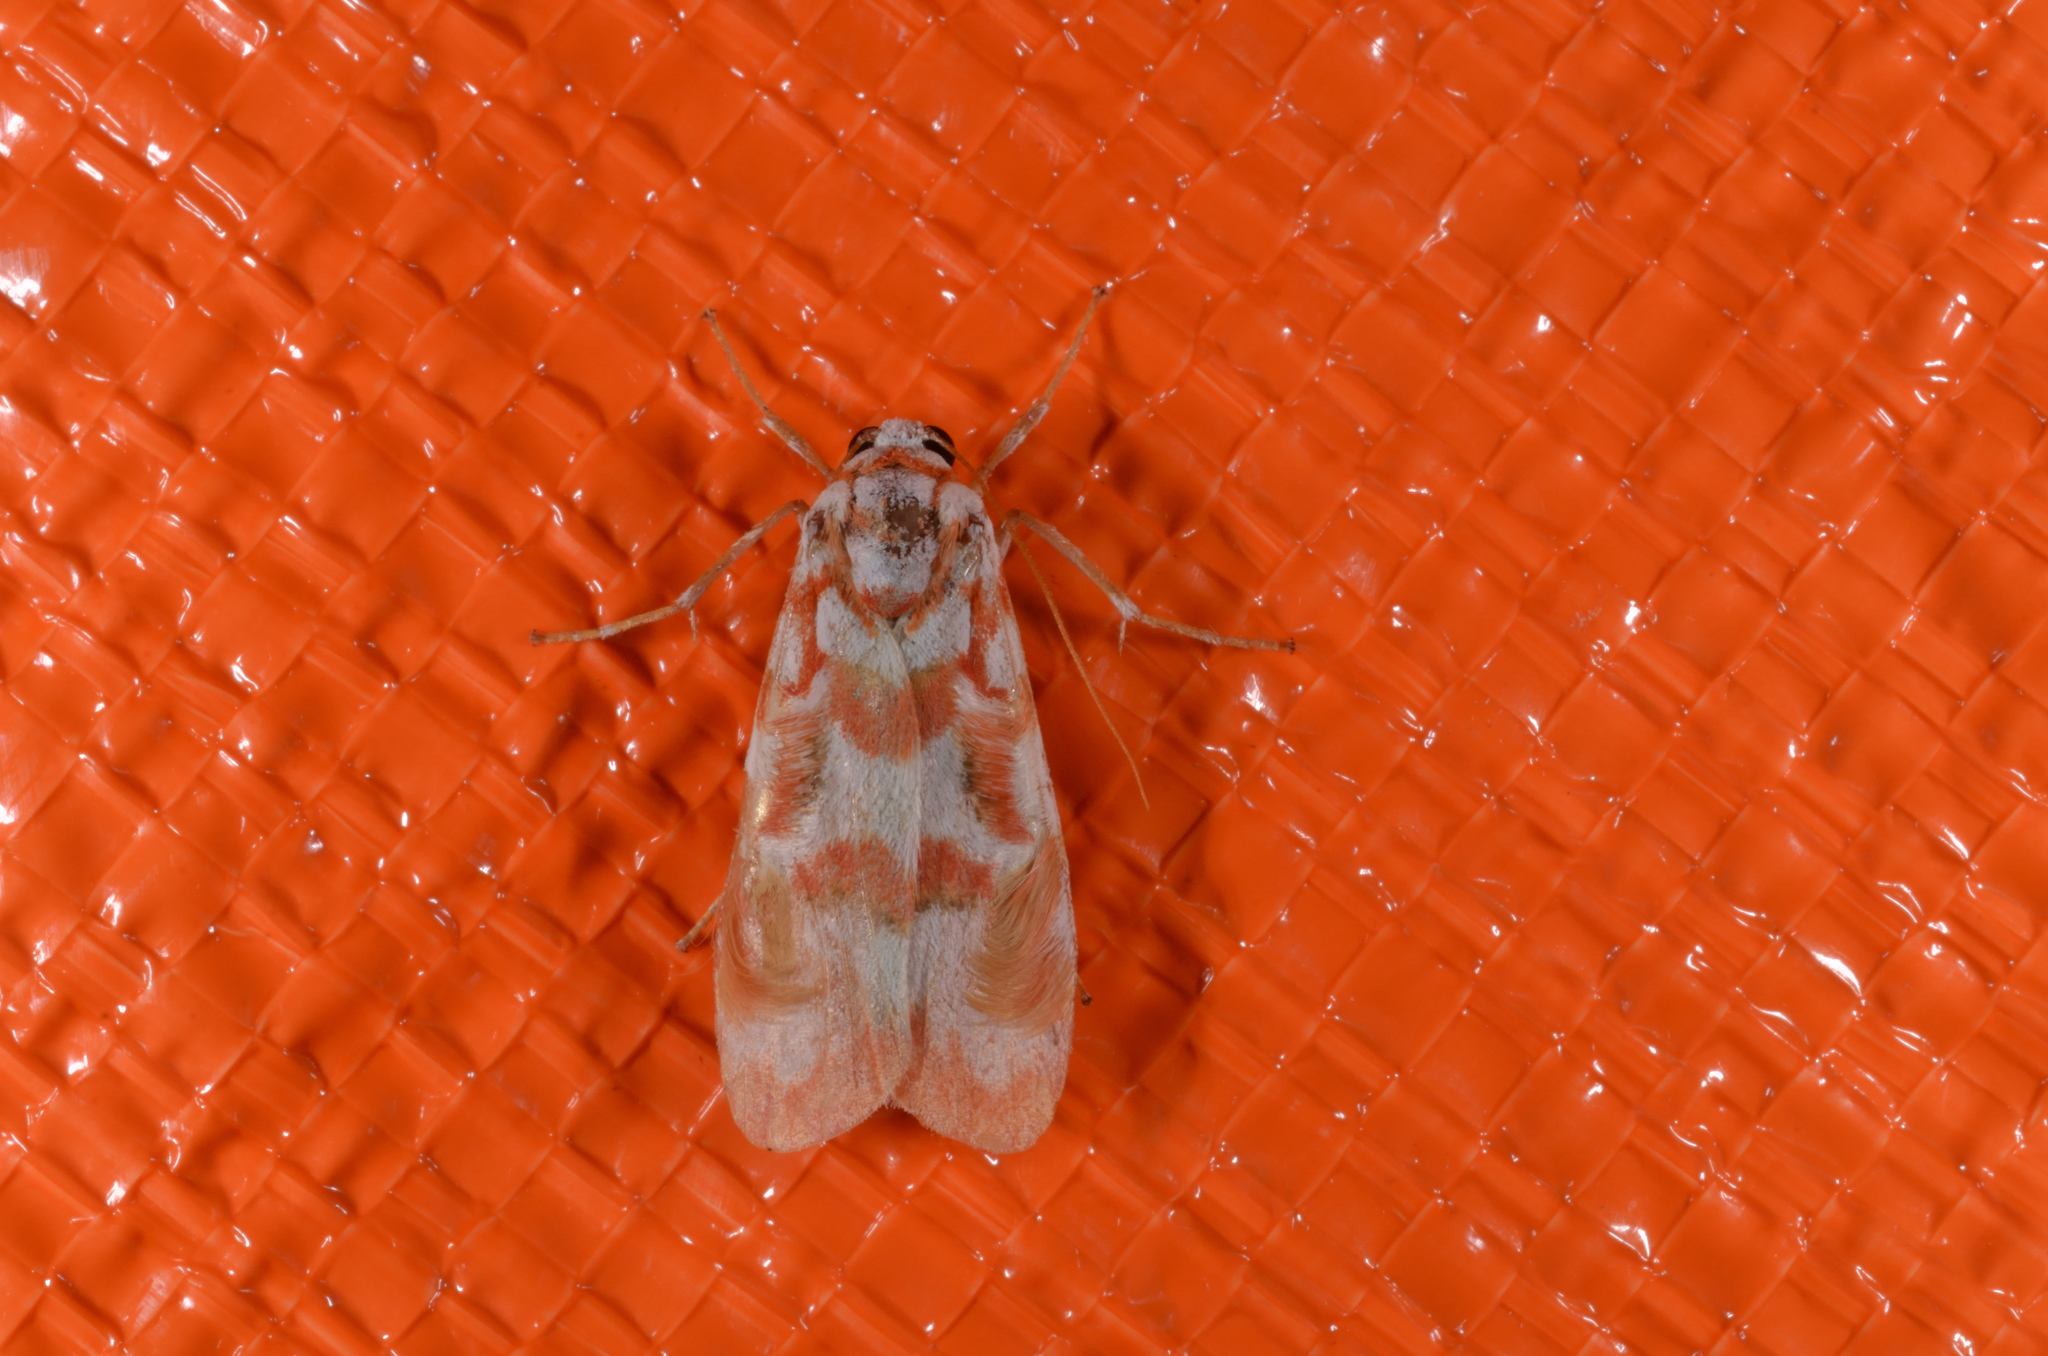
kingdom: Animalia
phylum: Arthropoda
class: Insecta
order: Lepidoptera
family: Erebidae
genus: Cyana
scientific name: Cyana costifimbria
